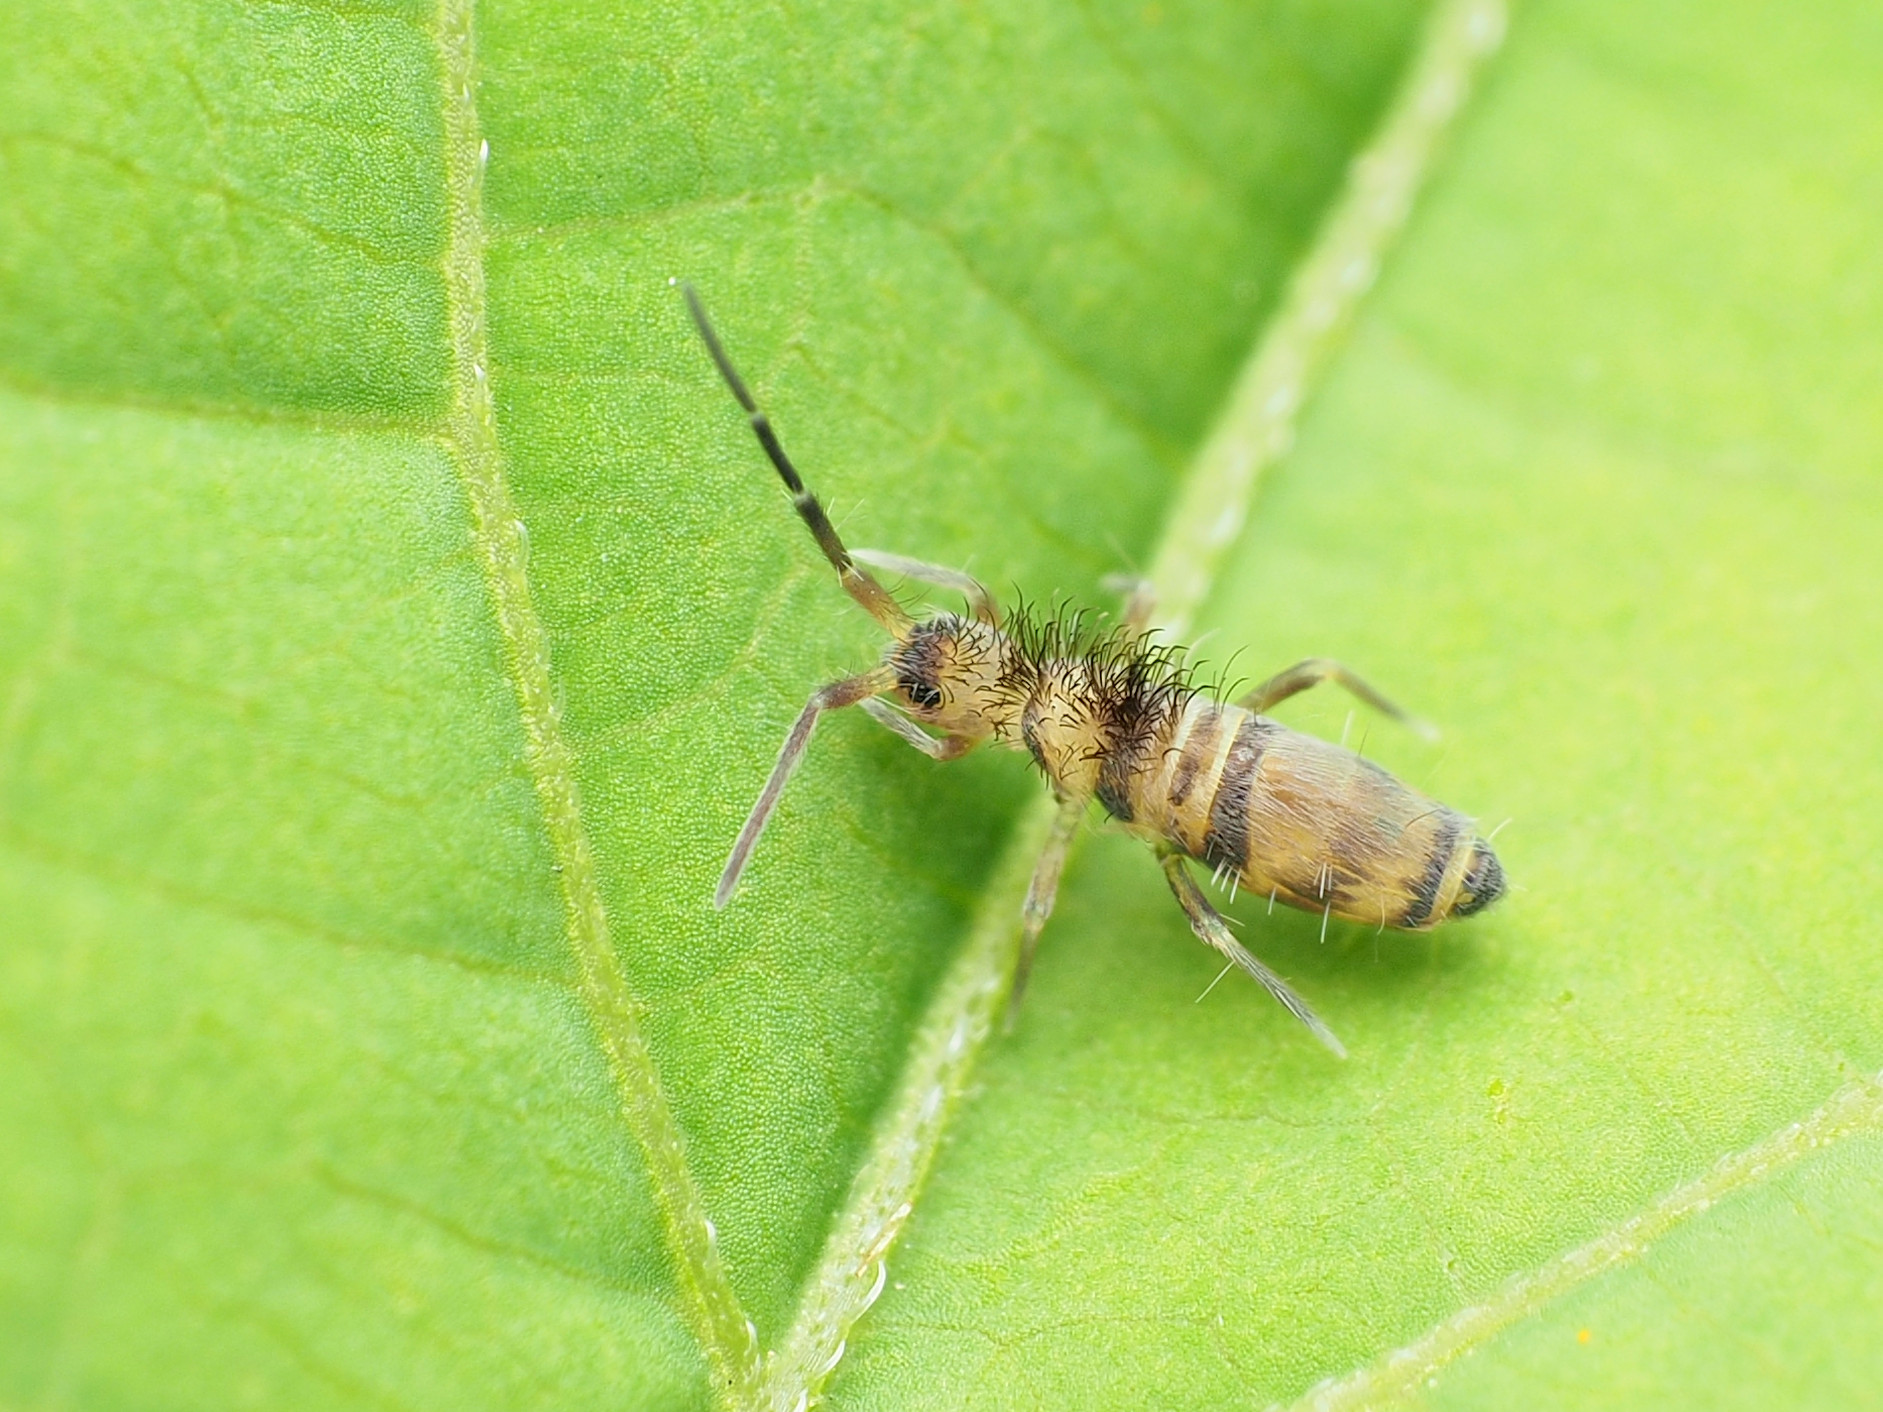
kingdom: Animalia
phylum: Arthropoda
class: Collembola
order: Entomobryomorpha
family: Entomobryidae
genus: Homidia
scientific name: Homidia sauteri
